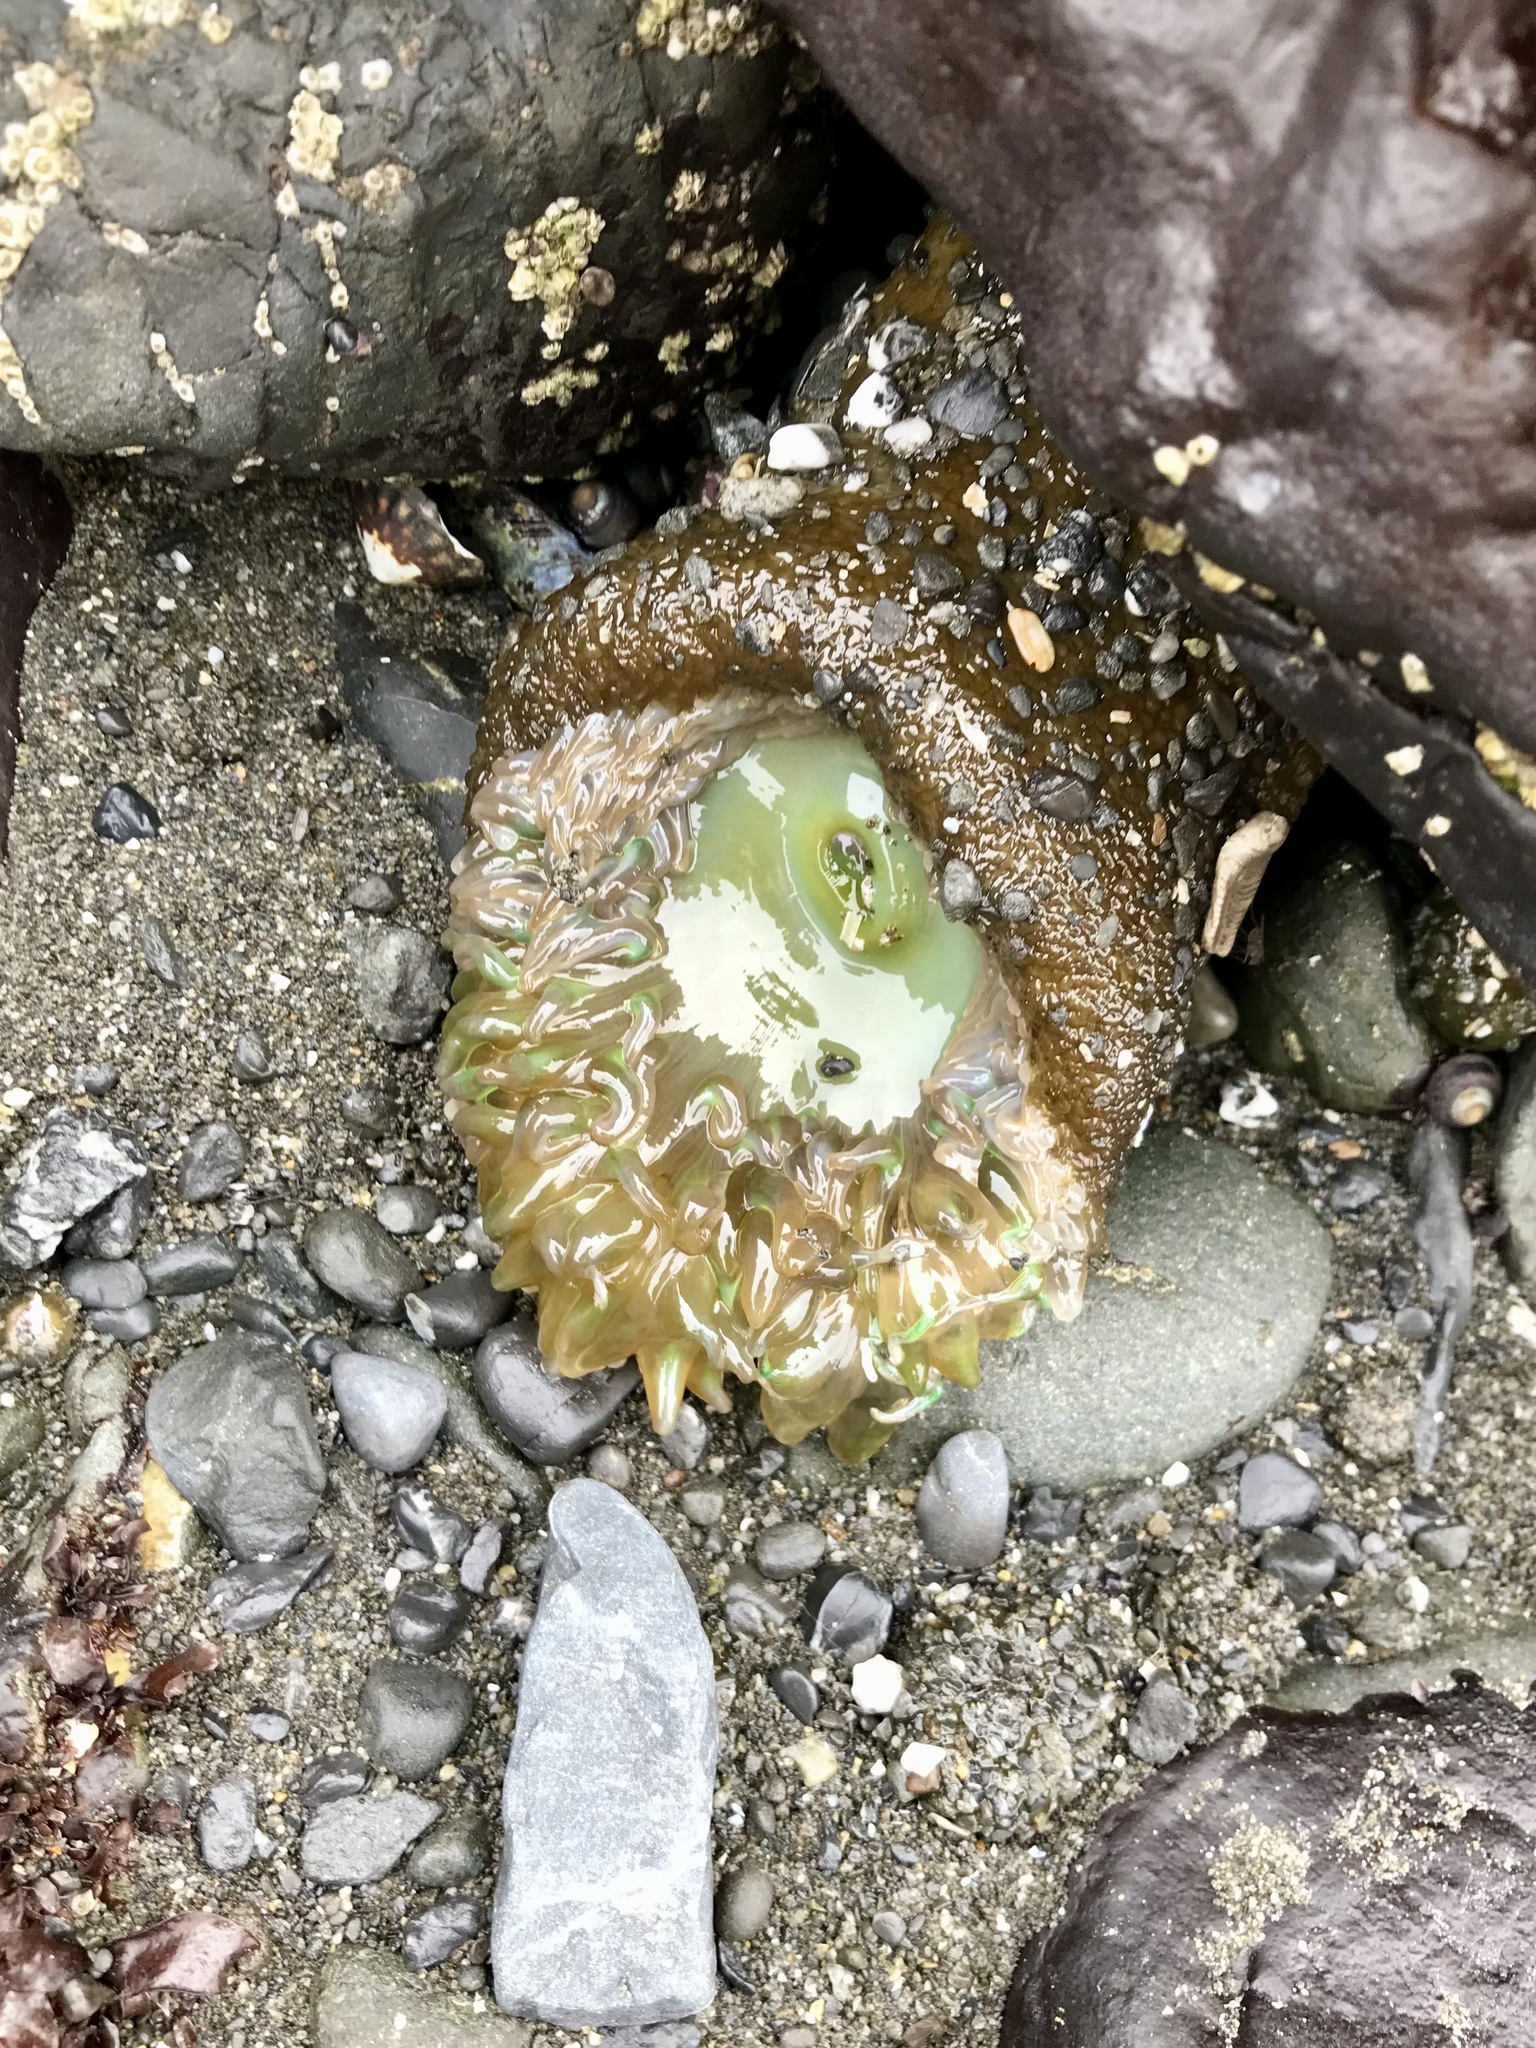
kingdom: Animalia
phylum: Cnidaria
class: Anthozoa
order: Actiniaria
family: Actiniidae
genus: Anthopleura
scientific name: Anthopleura xanthogrammica
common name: Giant green anemone
